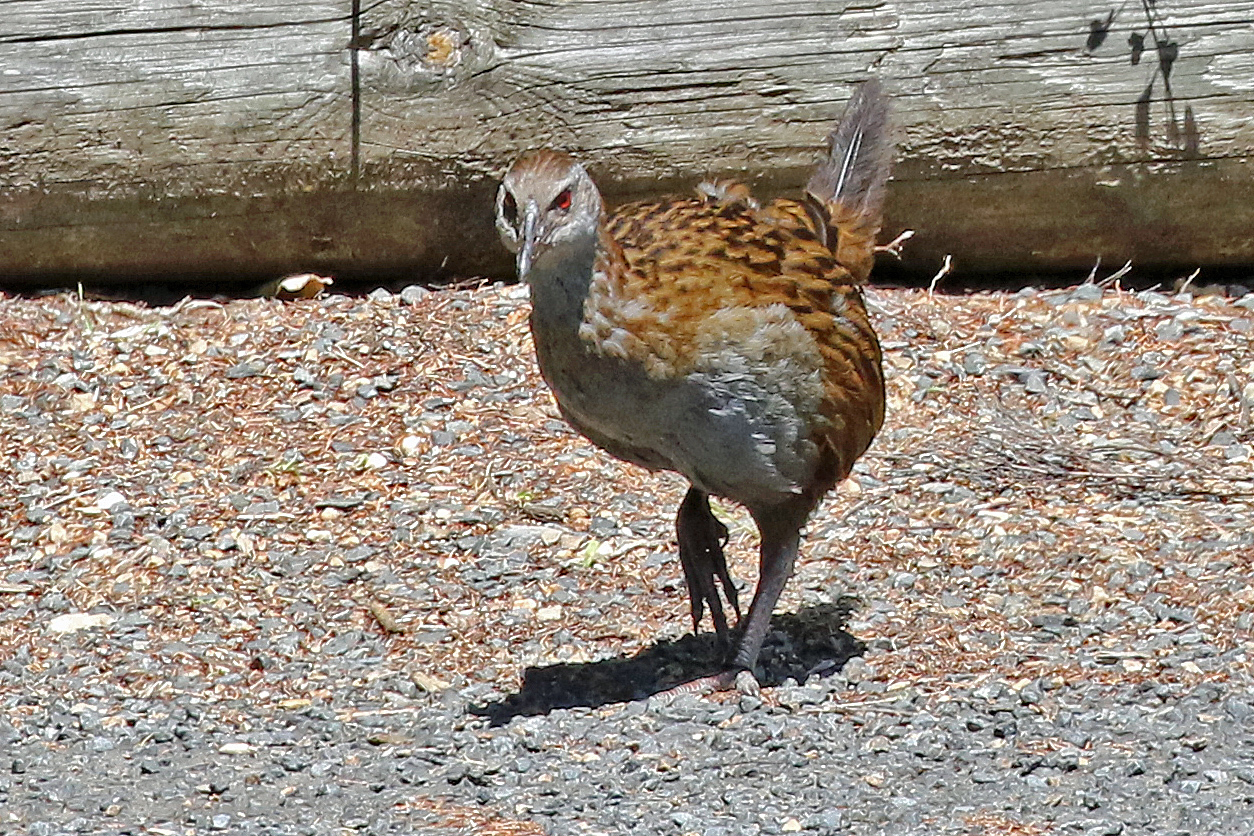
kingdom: Animalia
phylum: Chordata
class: Aves
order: Gruiformes
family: Rallidae
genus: Gallirallus
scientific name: Gallirallus australis
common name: Weka
